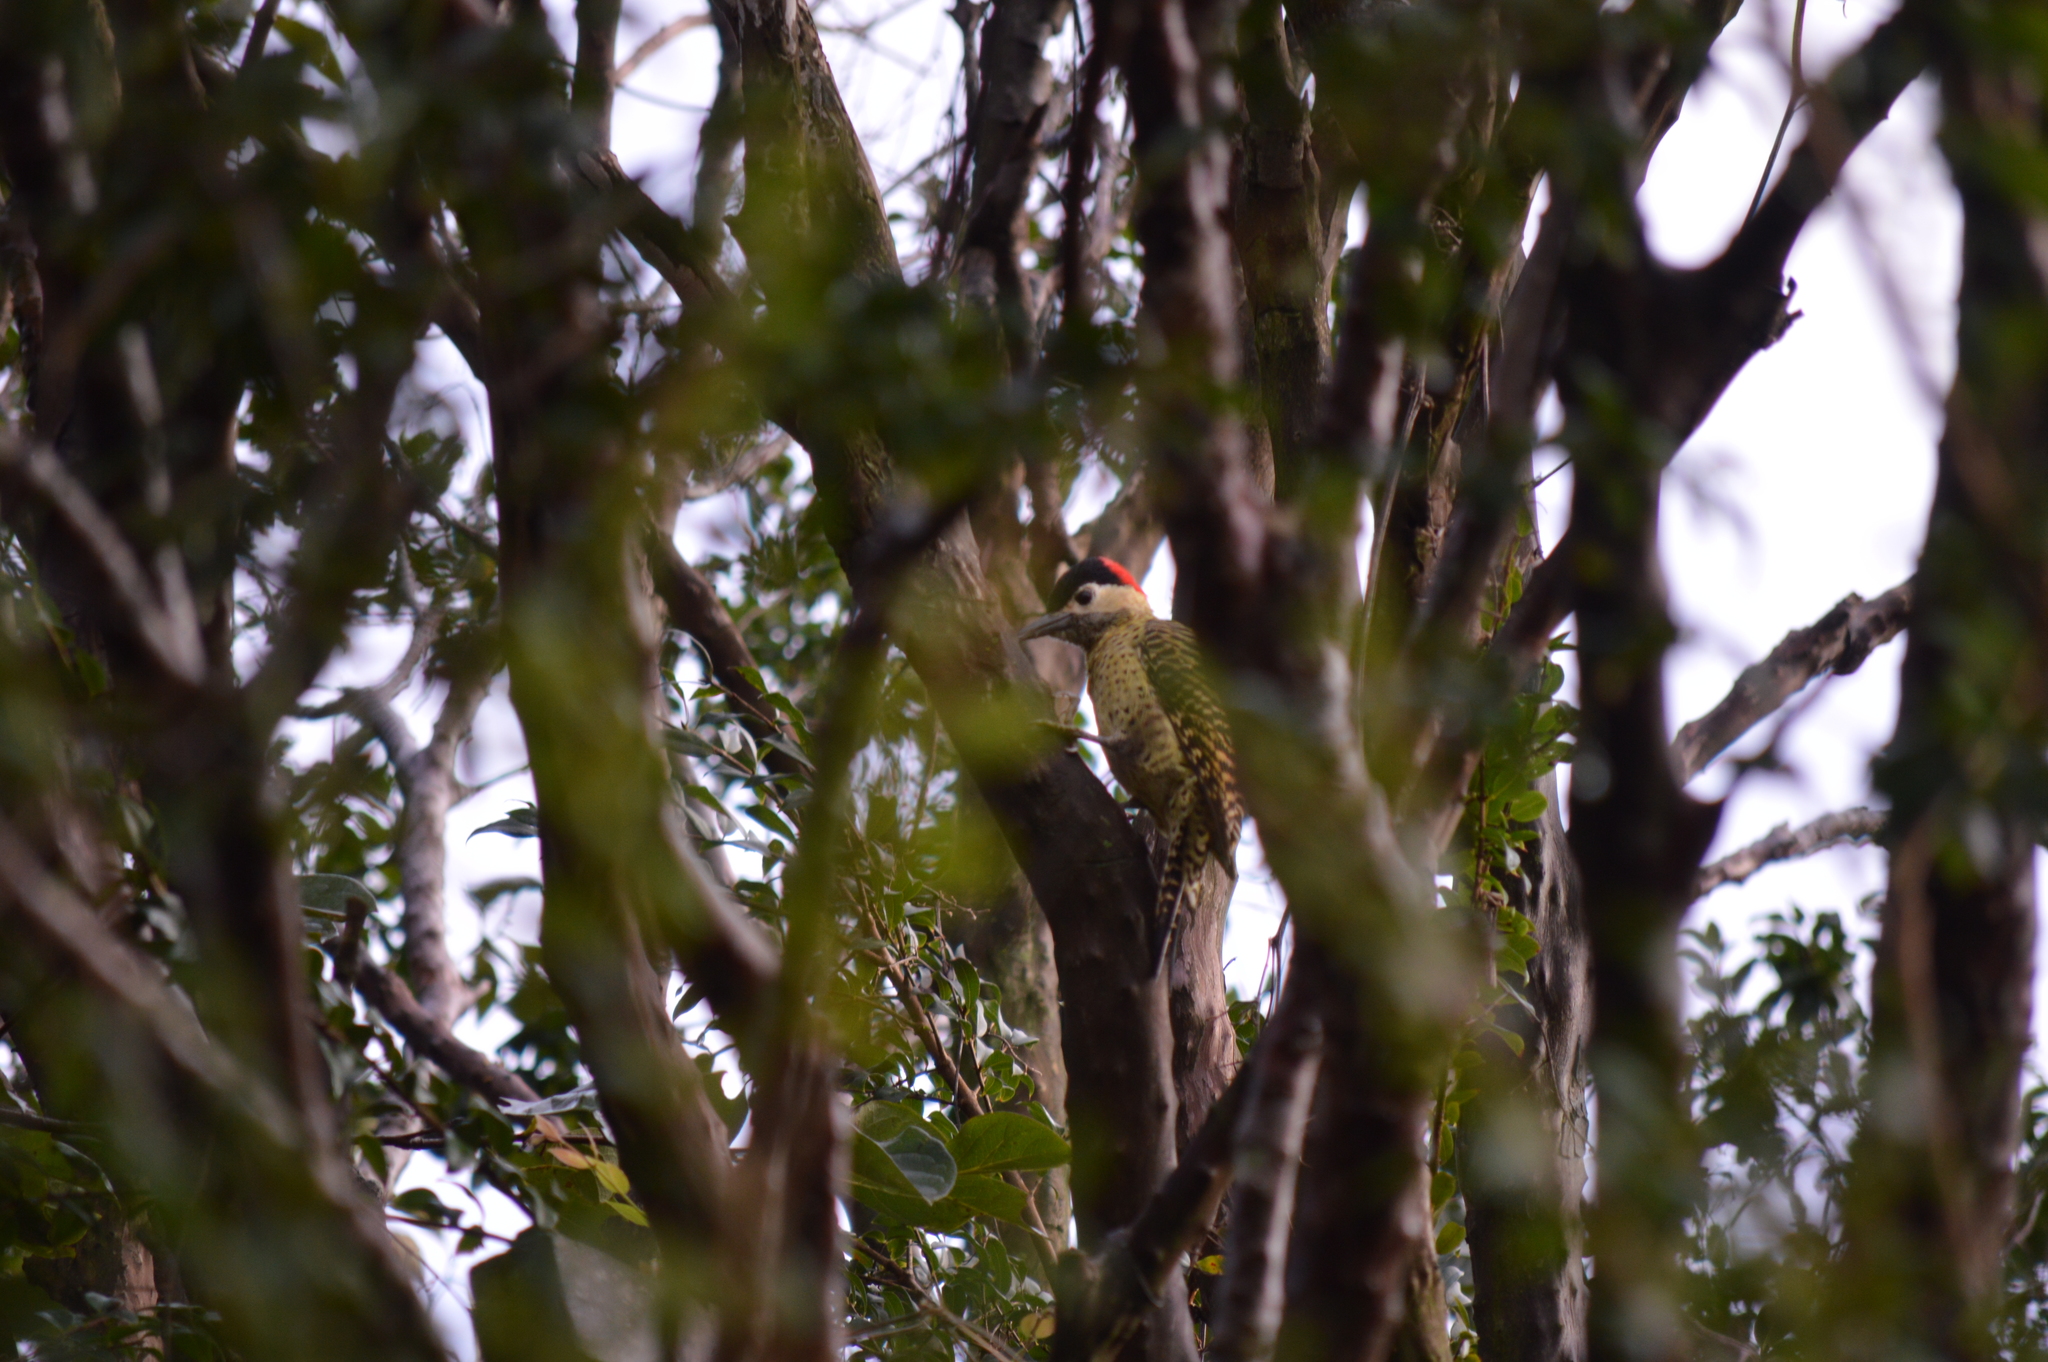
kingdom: Animalia
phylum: Chordata
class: Aves
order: Piciformes
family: Picidae
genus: Colaptes
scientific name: Colaptes melanochloros
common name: Green-barred woodpecker
